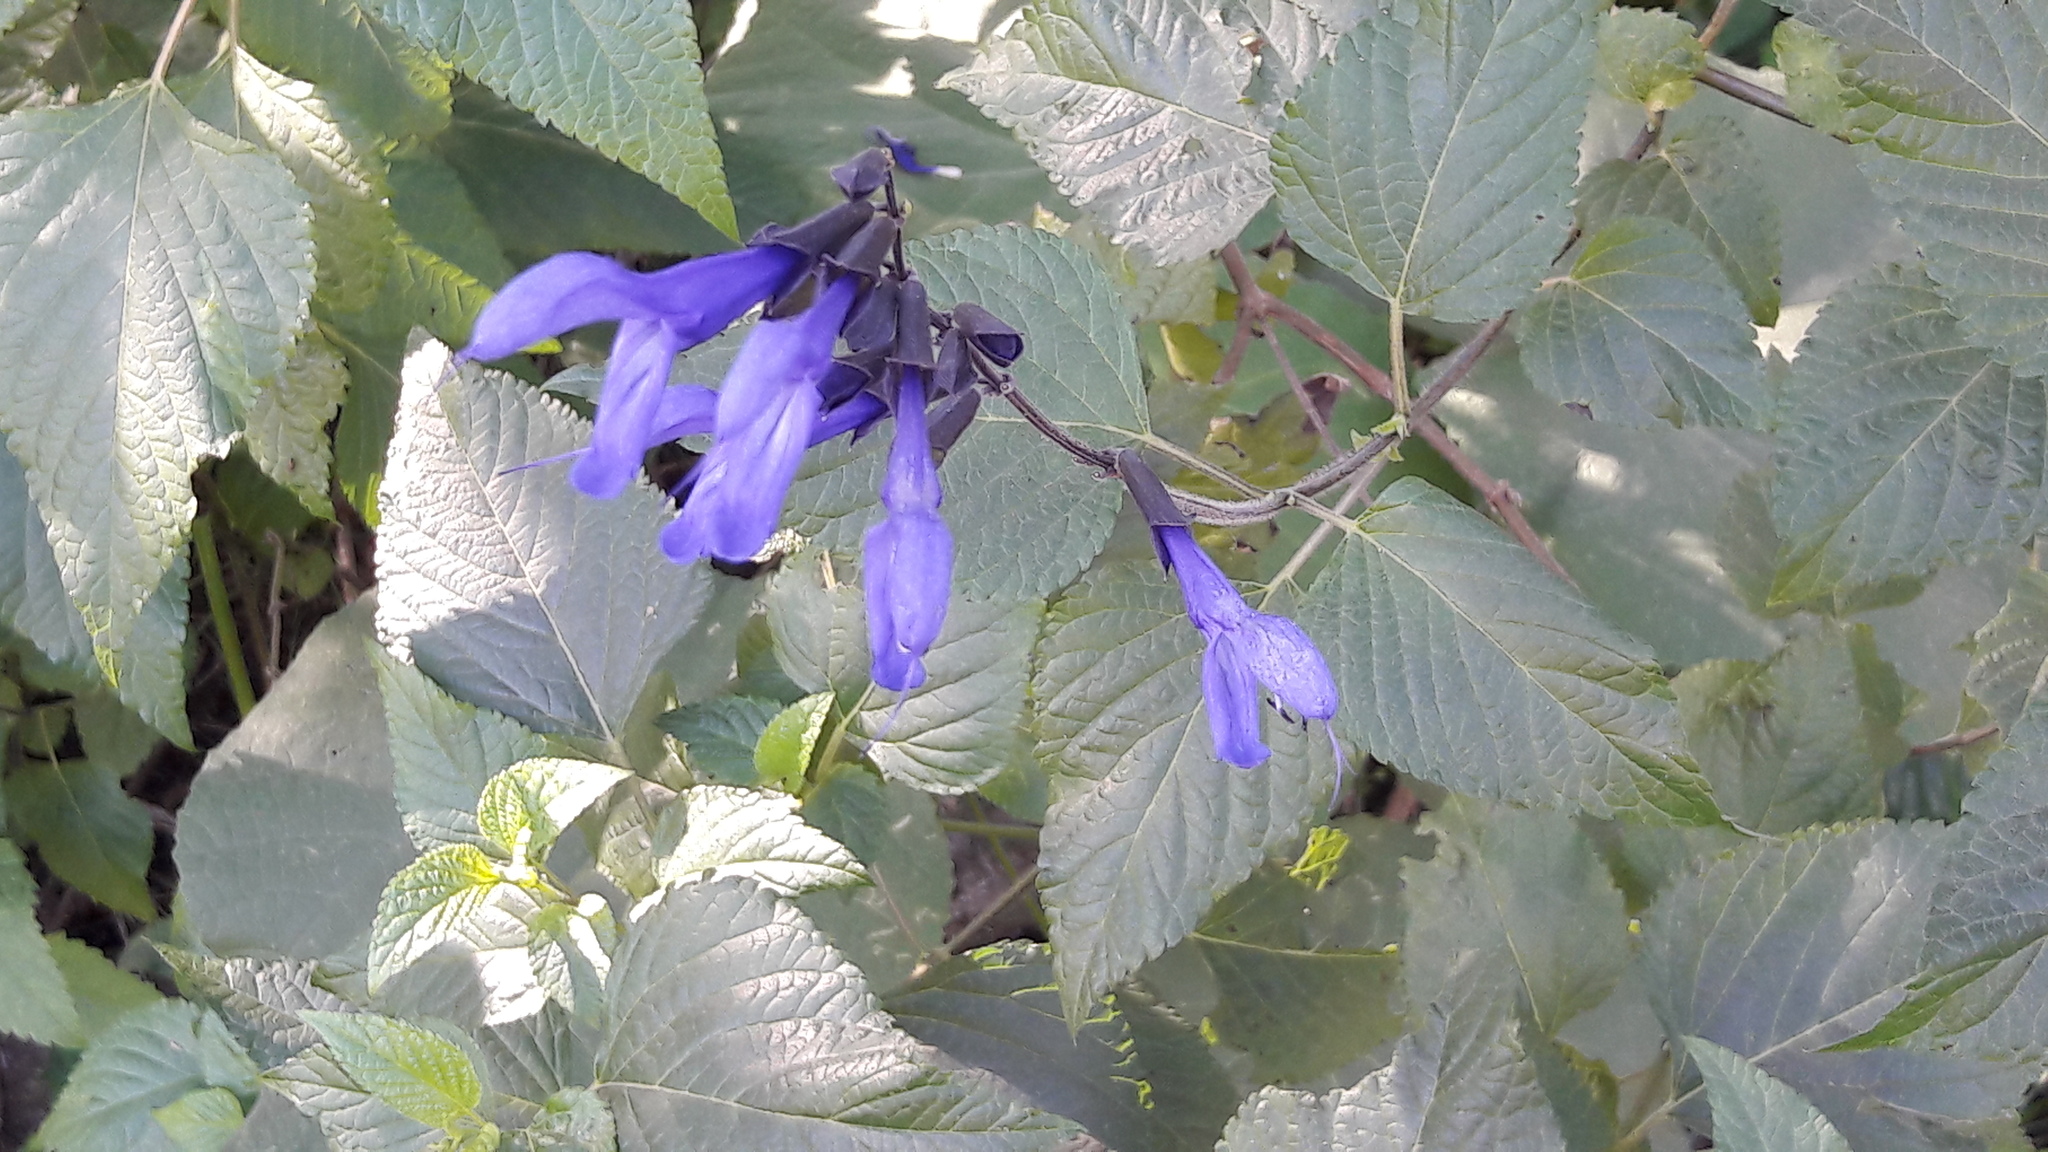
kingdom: Plantae
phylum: Tracheophyta
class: Magnoliopsida
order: Lamiales
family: Lamiaceae
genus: Salvia
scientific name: Salvia guaranitica
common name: Anise-scented sage
